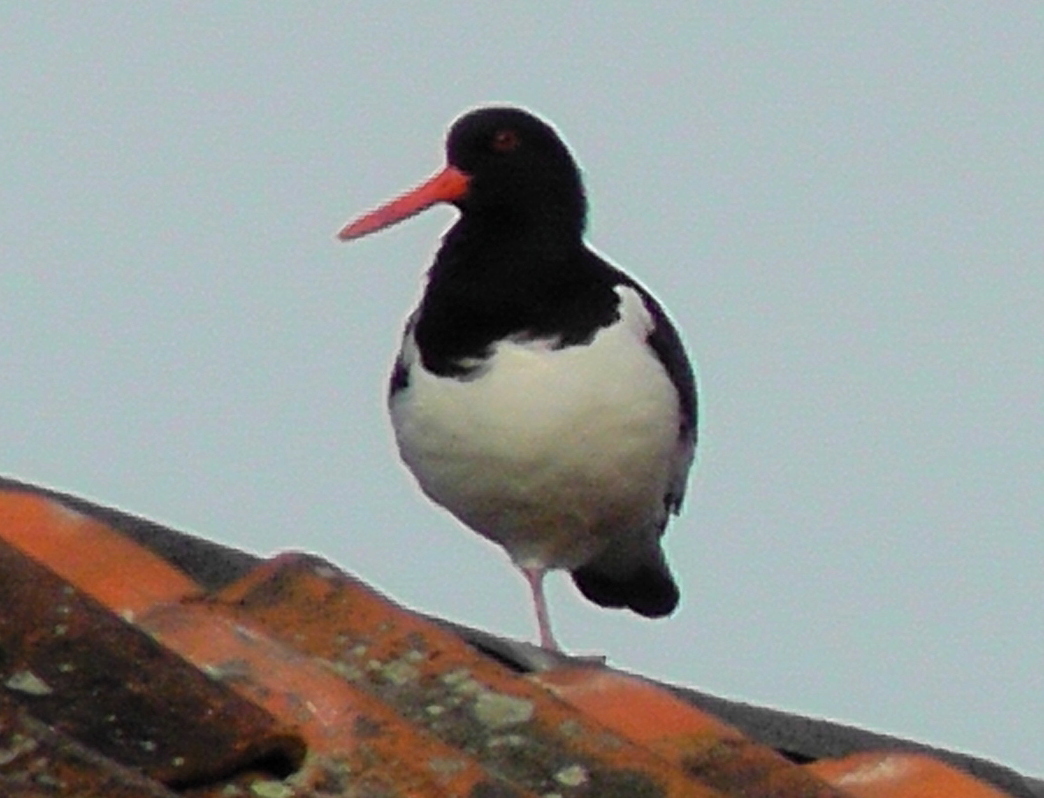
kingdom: Animalia
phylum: Chordata
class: Aves
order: Charadriiformes
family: Haematopodidae
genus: Haematopus
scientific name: Haematopus ostralegus
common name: Eurasian oystercatcher
